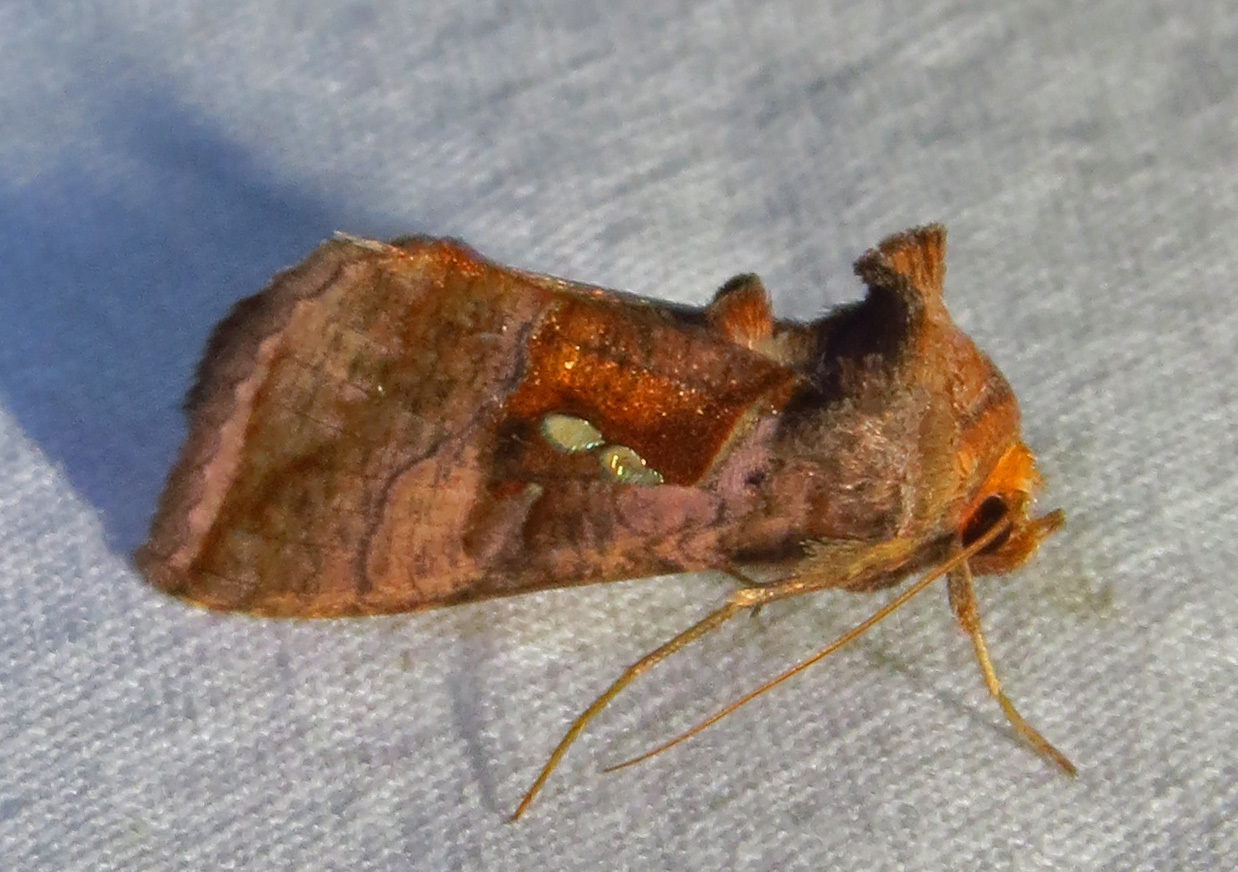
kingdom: Animalia
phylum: Arthropoda
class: Insecta
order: Lepidoptera
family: Noctuidae
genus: Enigmogramma
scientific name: Enigmogramma basigera
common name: Pink-washed looper moth
